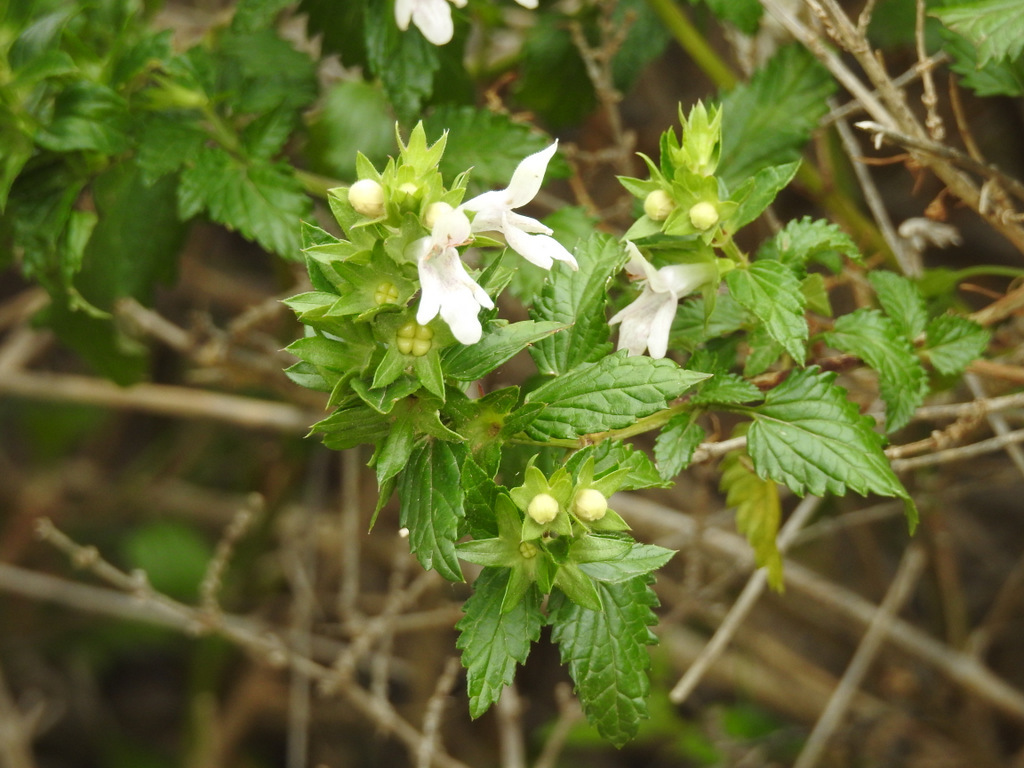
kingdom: Plantae
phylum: Tracheophyta
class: Magnoliopsida
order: Lamiales
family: Lamiaceae
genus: Prasium
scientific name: Prasium majus
